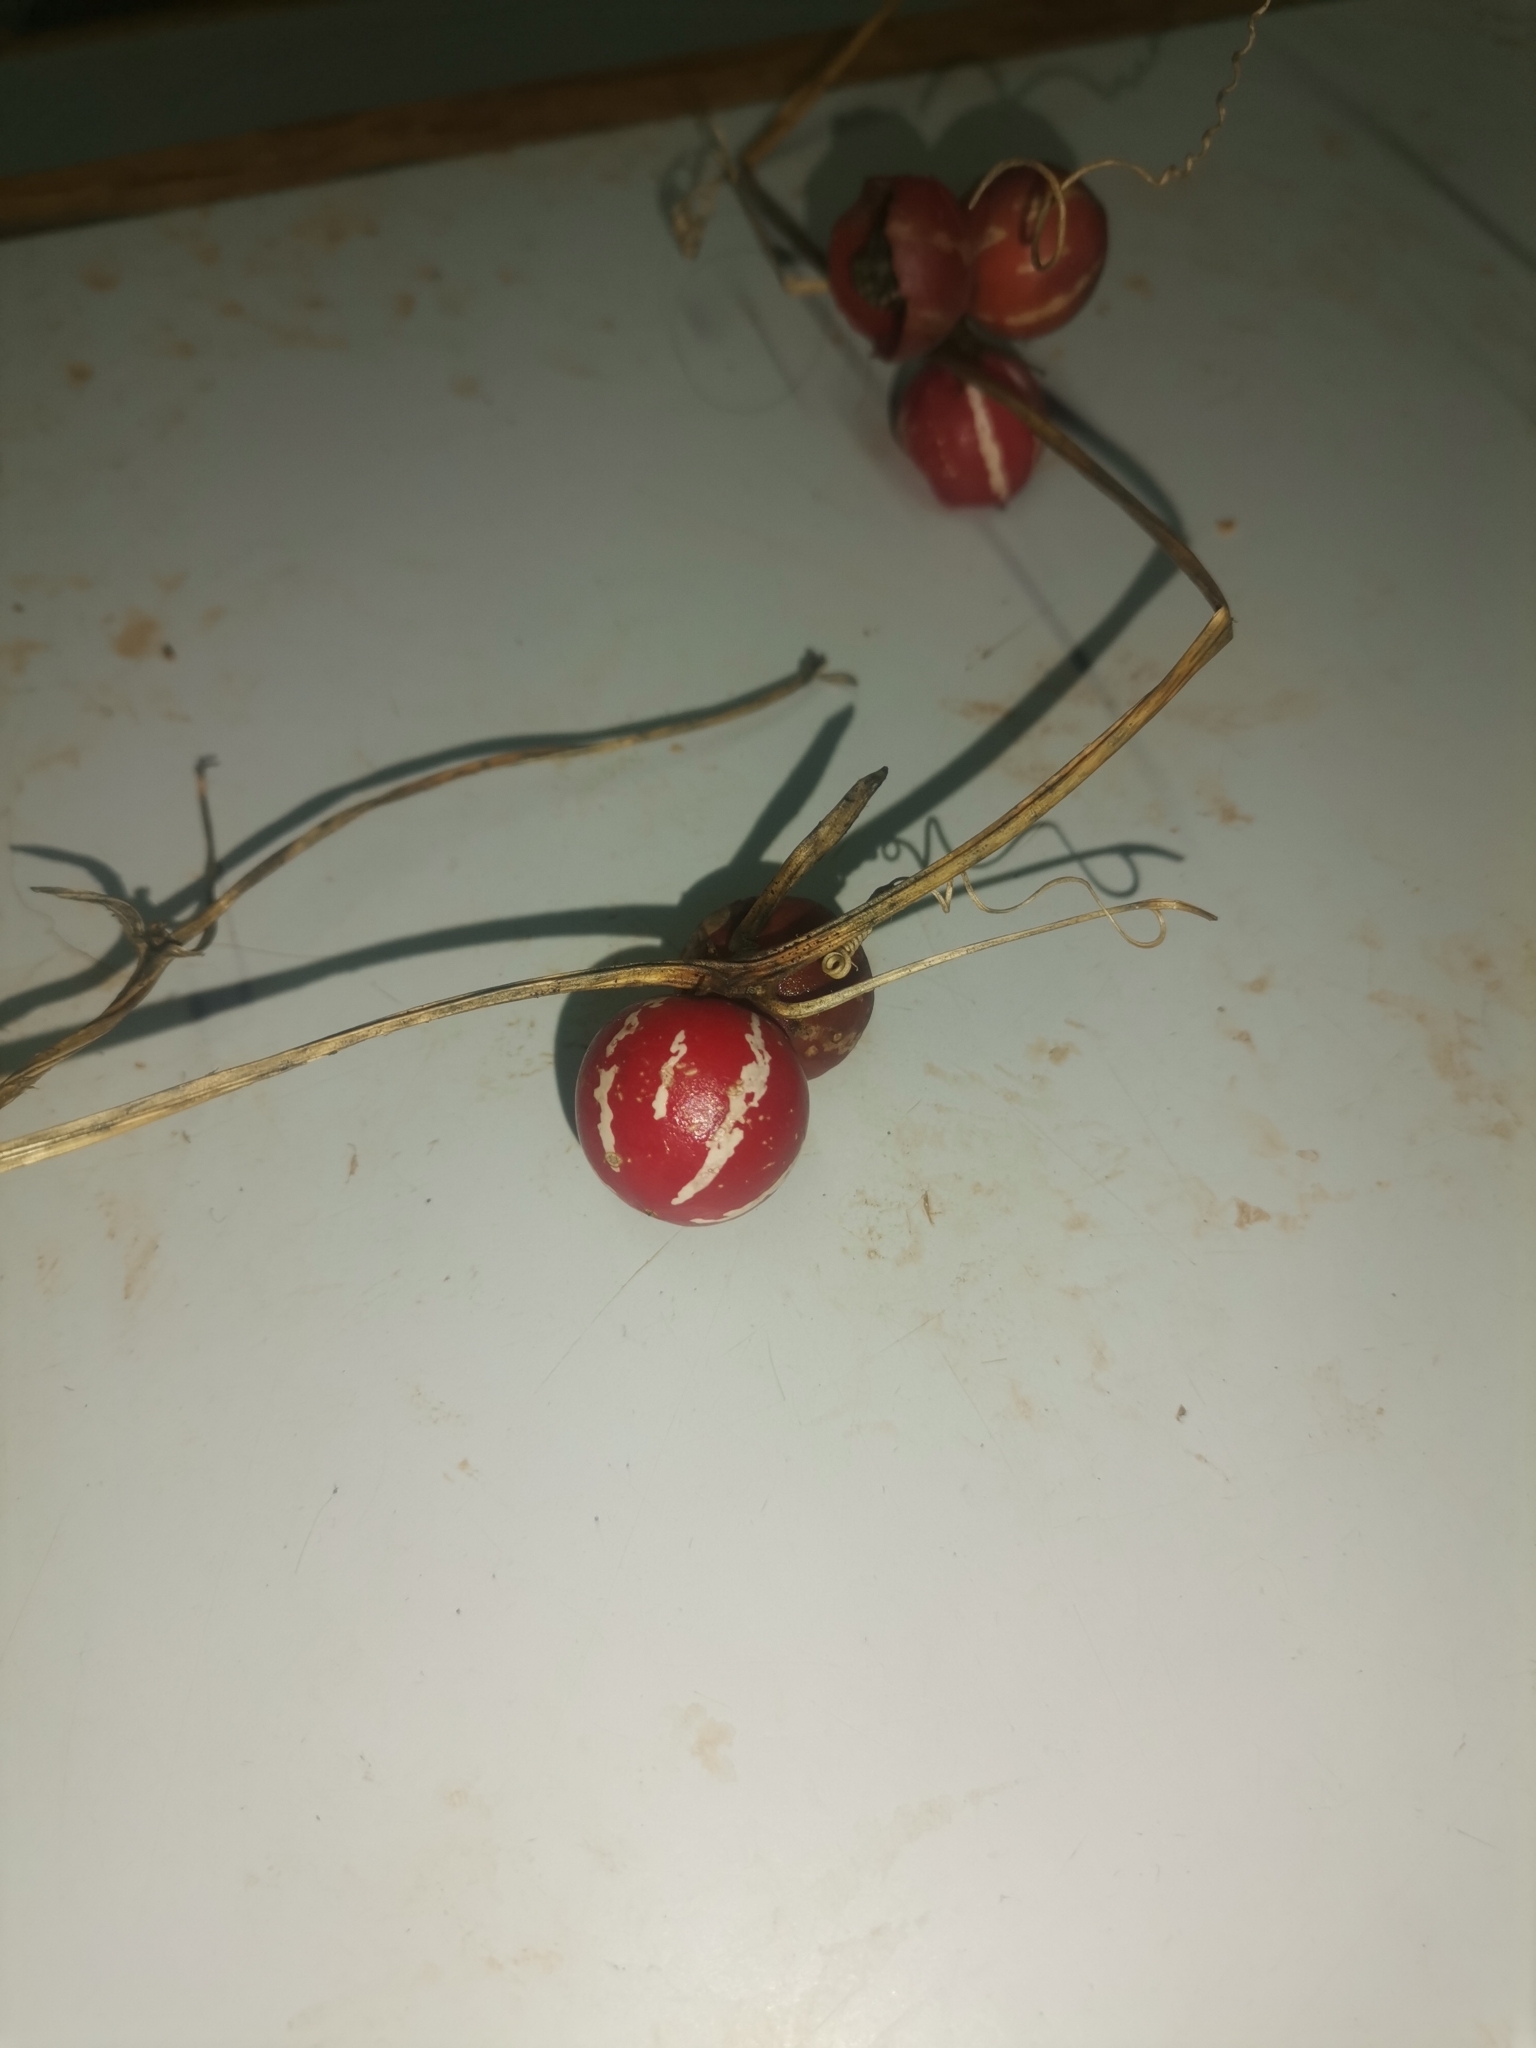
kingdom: Plantae
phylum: Tracheophyta
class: Magnoliopsida
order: Cucurbitales
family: Cucurbitaceae
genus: Diplocyclos
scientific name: Diplocyclos palmatus
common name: Striped-cucumber
